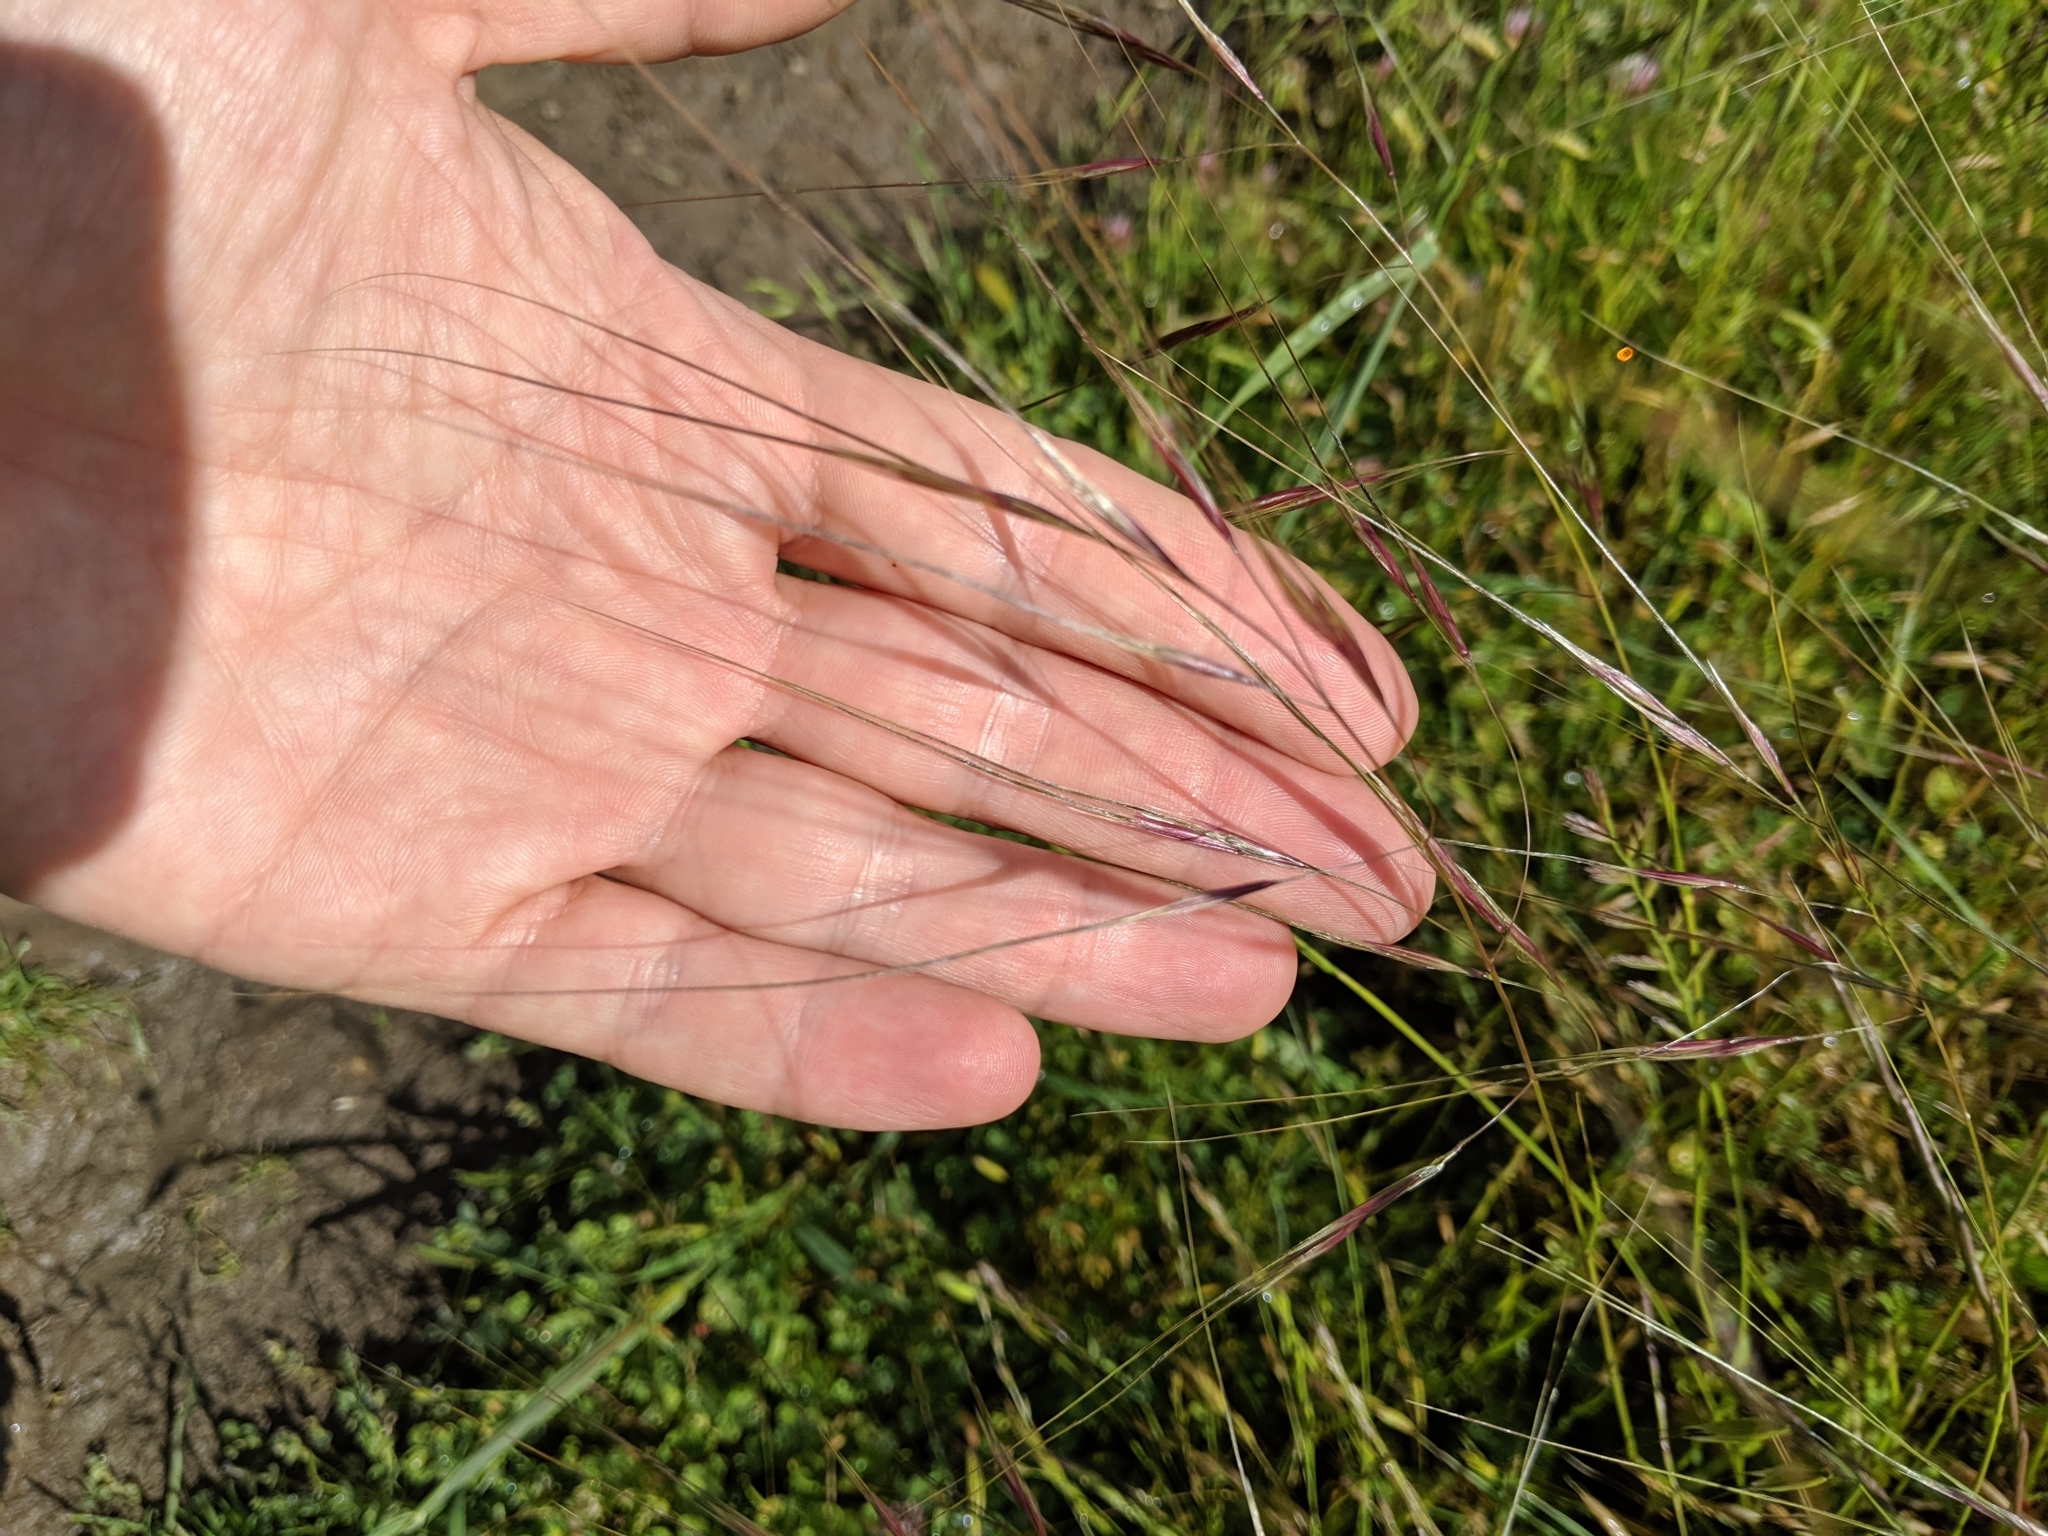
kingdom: Plantae
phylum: Tracheophyta
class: Liliopsida
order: Poales
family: Poaceae
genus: Nassella
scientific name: Nassella pulchra
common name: Purple needlegrass
